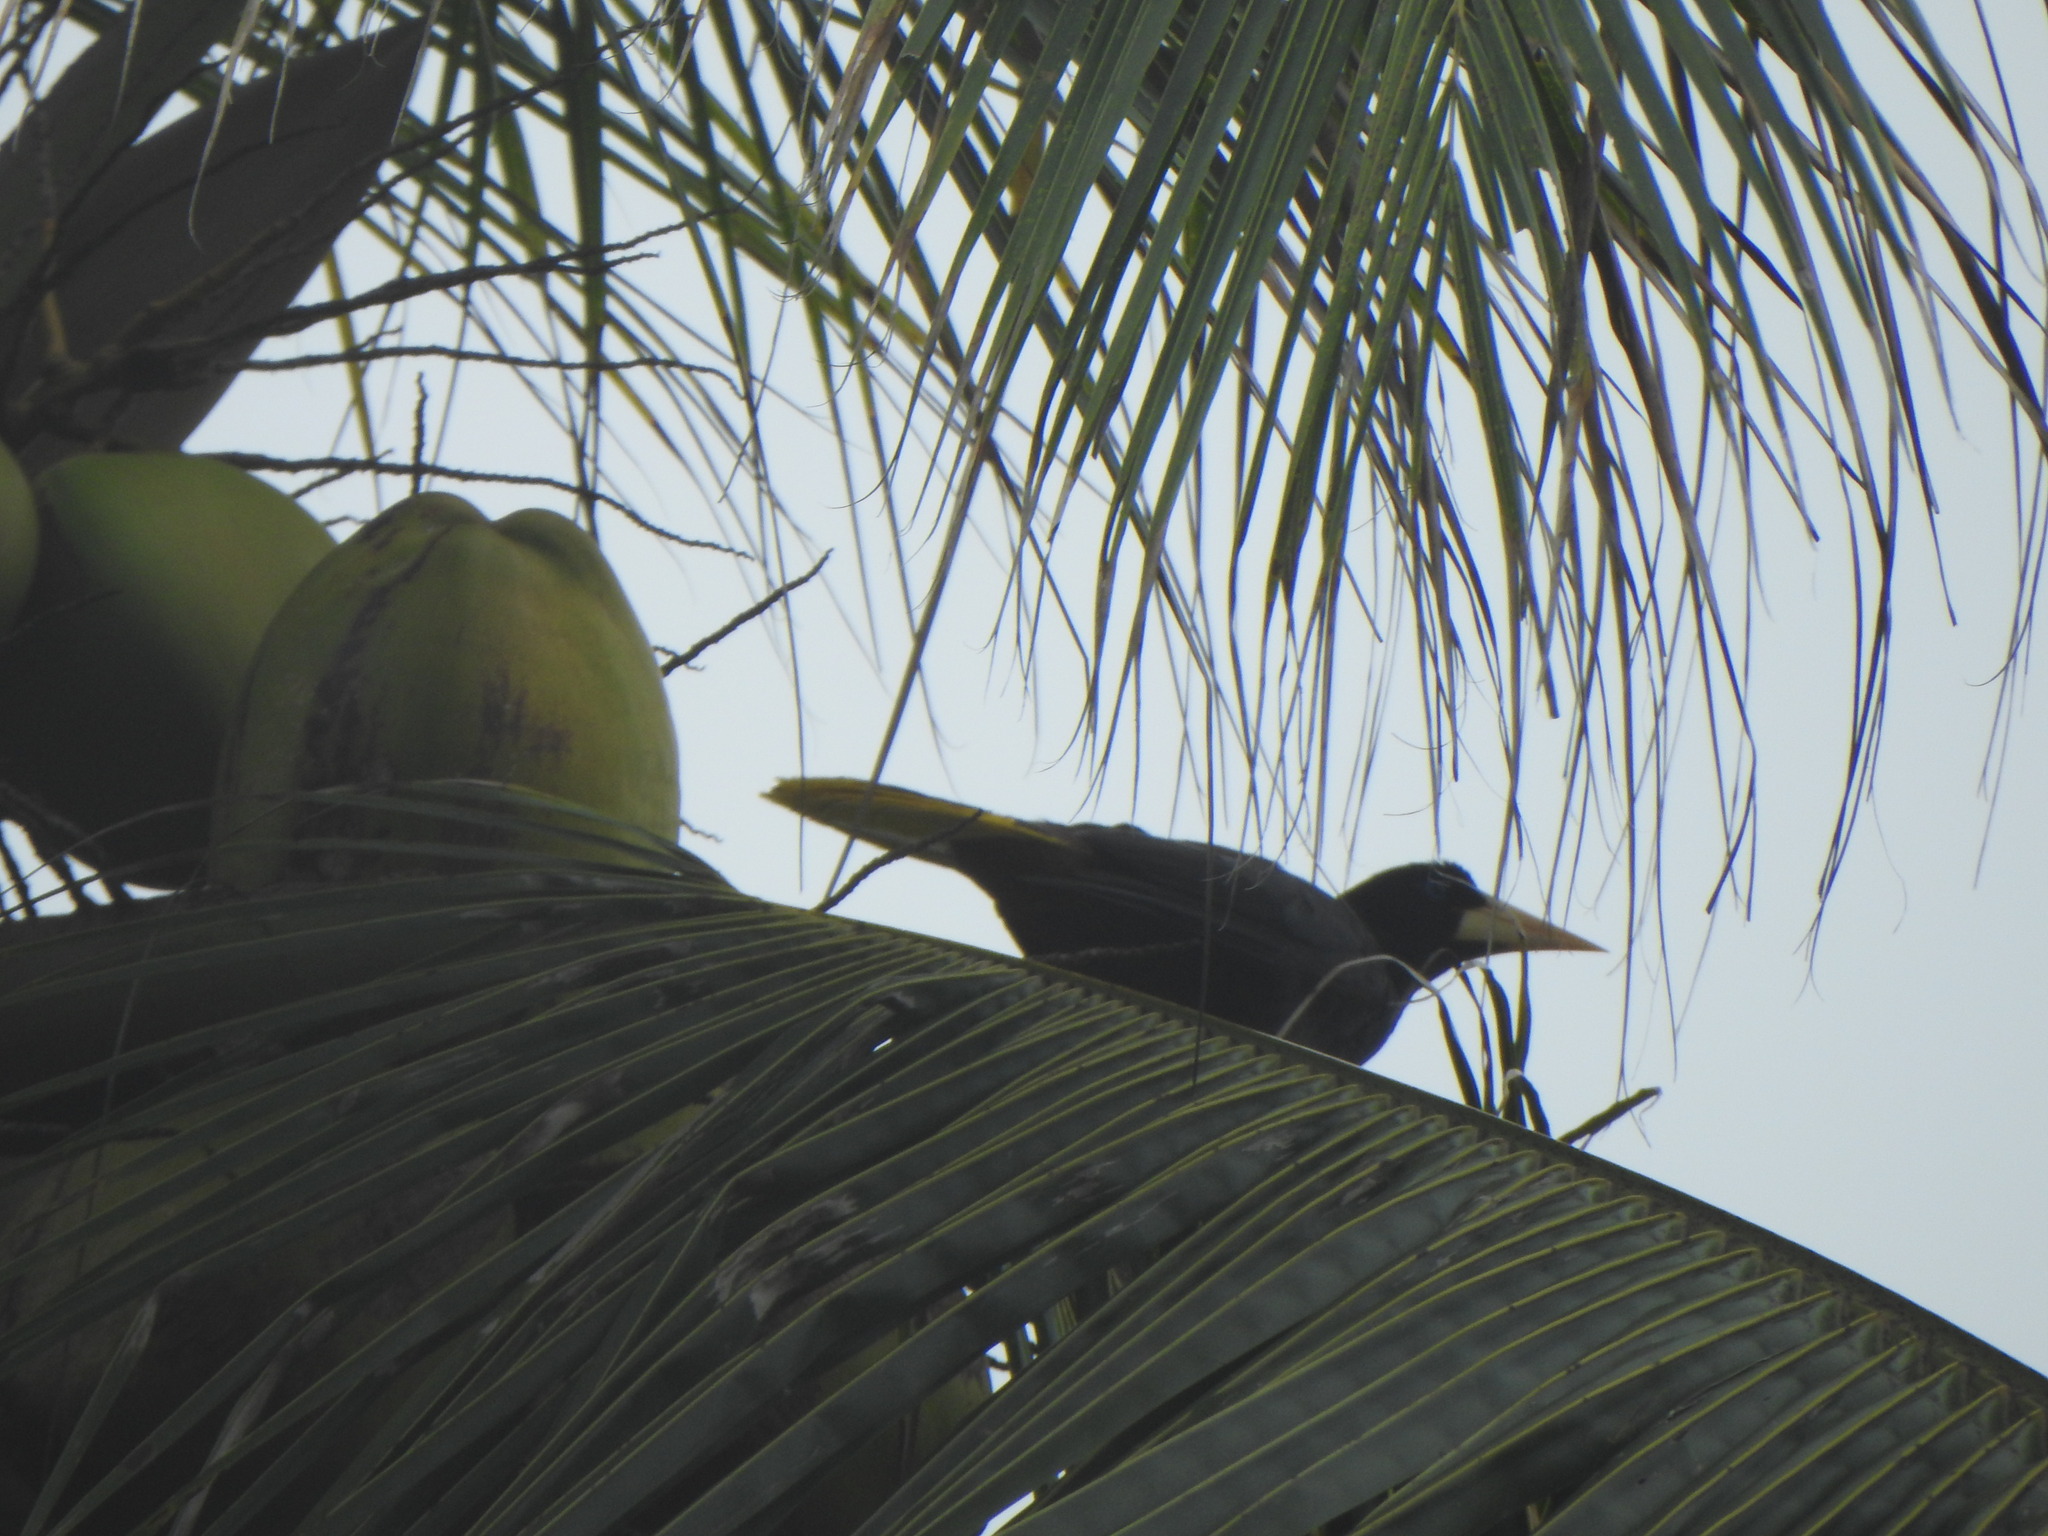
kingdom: Animalia
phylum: Chordata
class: Aves
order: Passeriformes
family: Icteridae
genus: Psarocolius
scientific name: Psarocolius decumanus
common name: Crested oropendola
